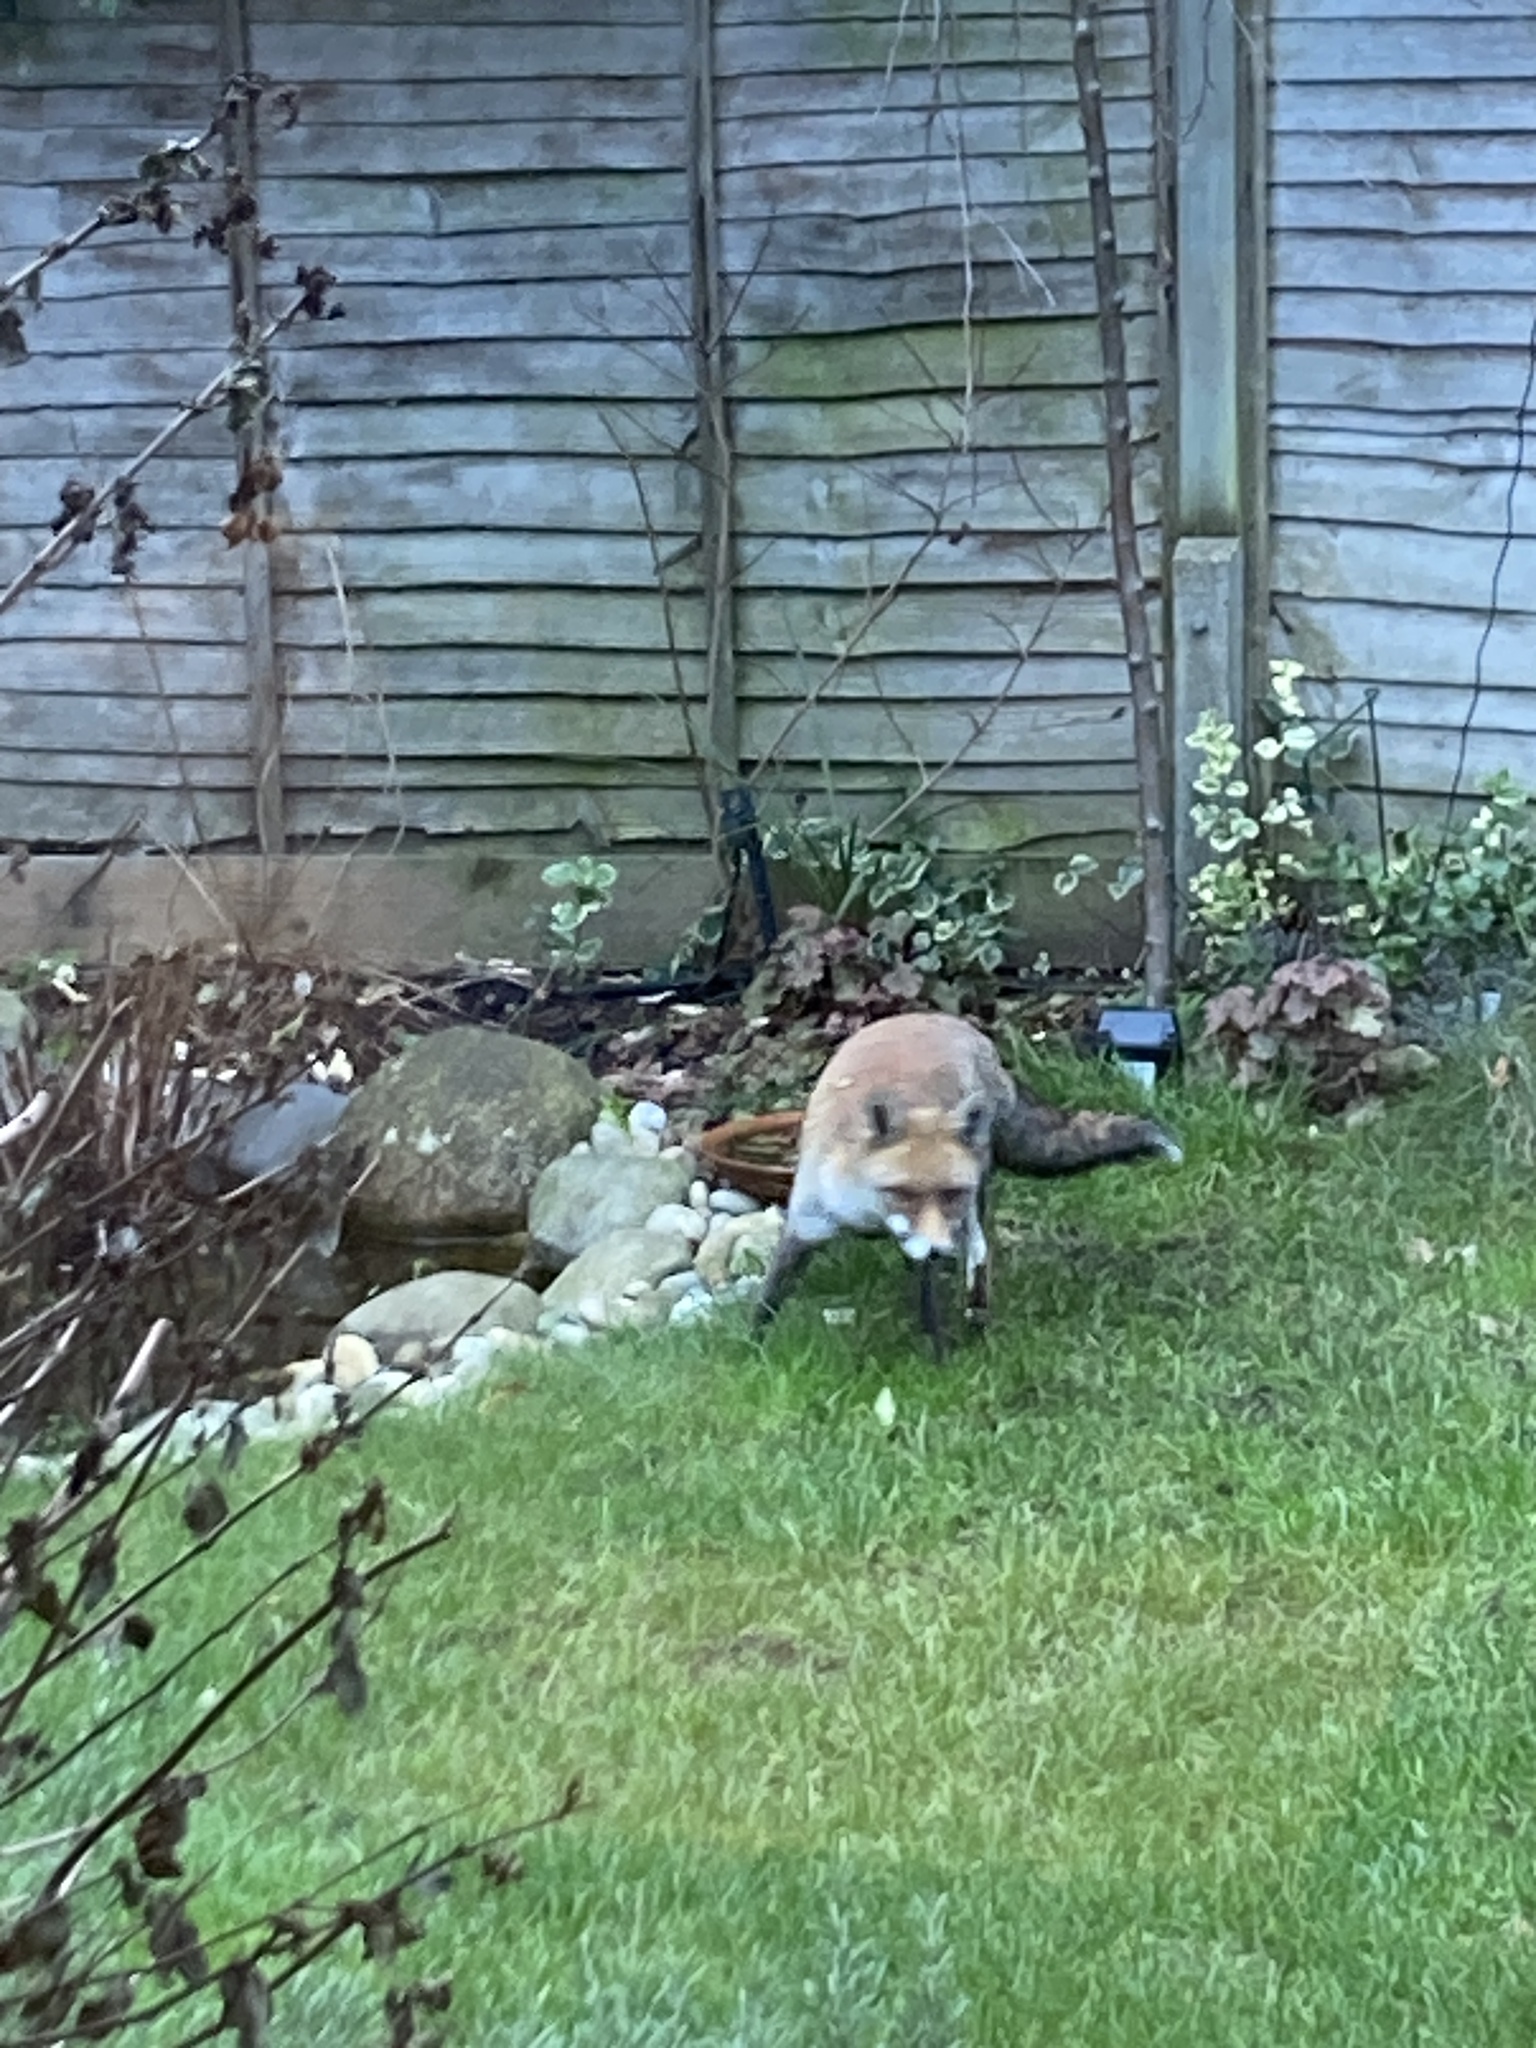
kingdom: Animalia
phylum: Chordata
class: Mammalia
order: Carnivora
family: Canidae
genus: Vulpes
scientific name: Vulpes vulpes
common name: Red fox
